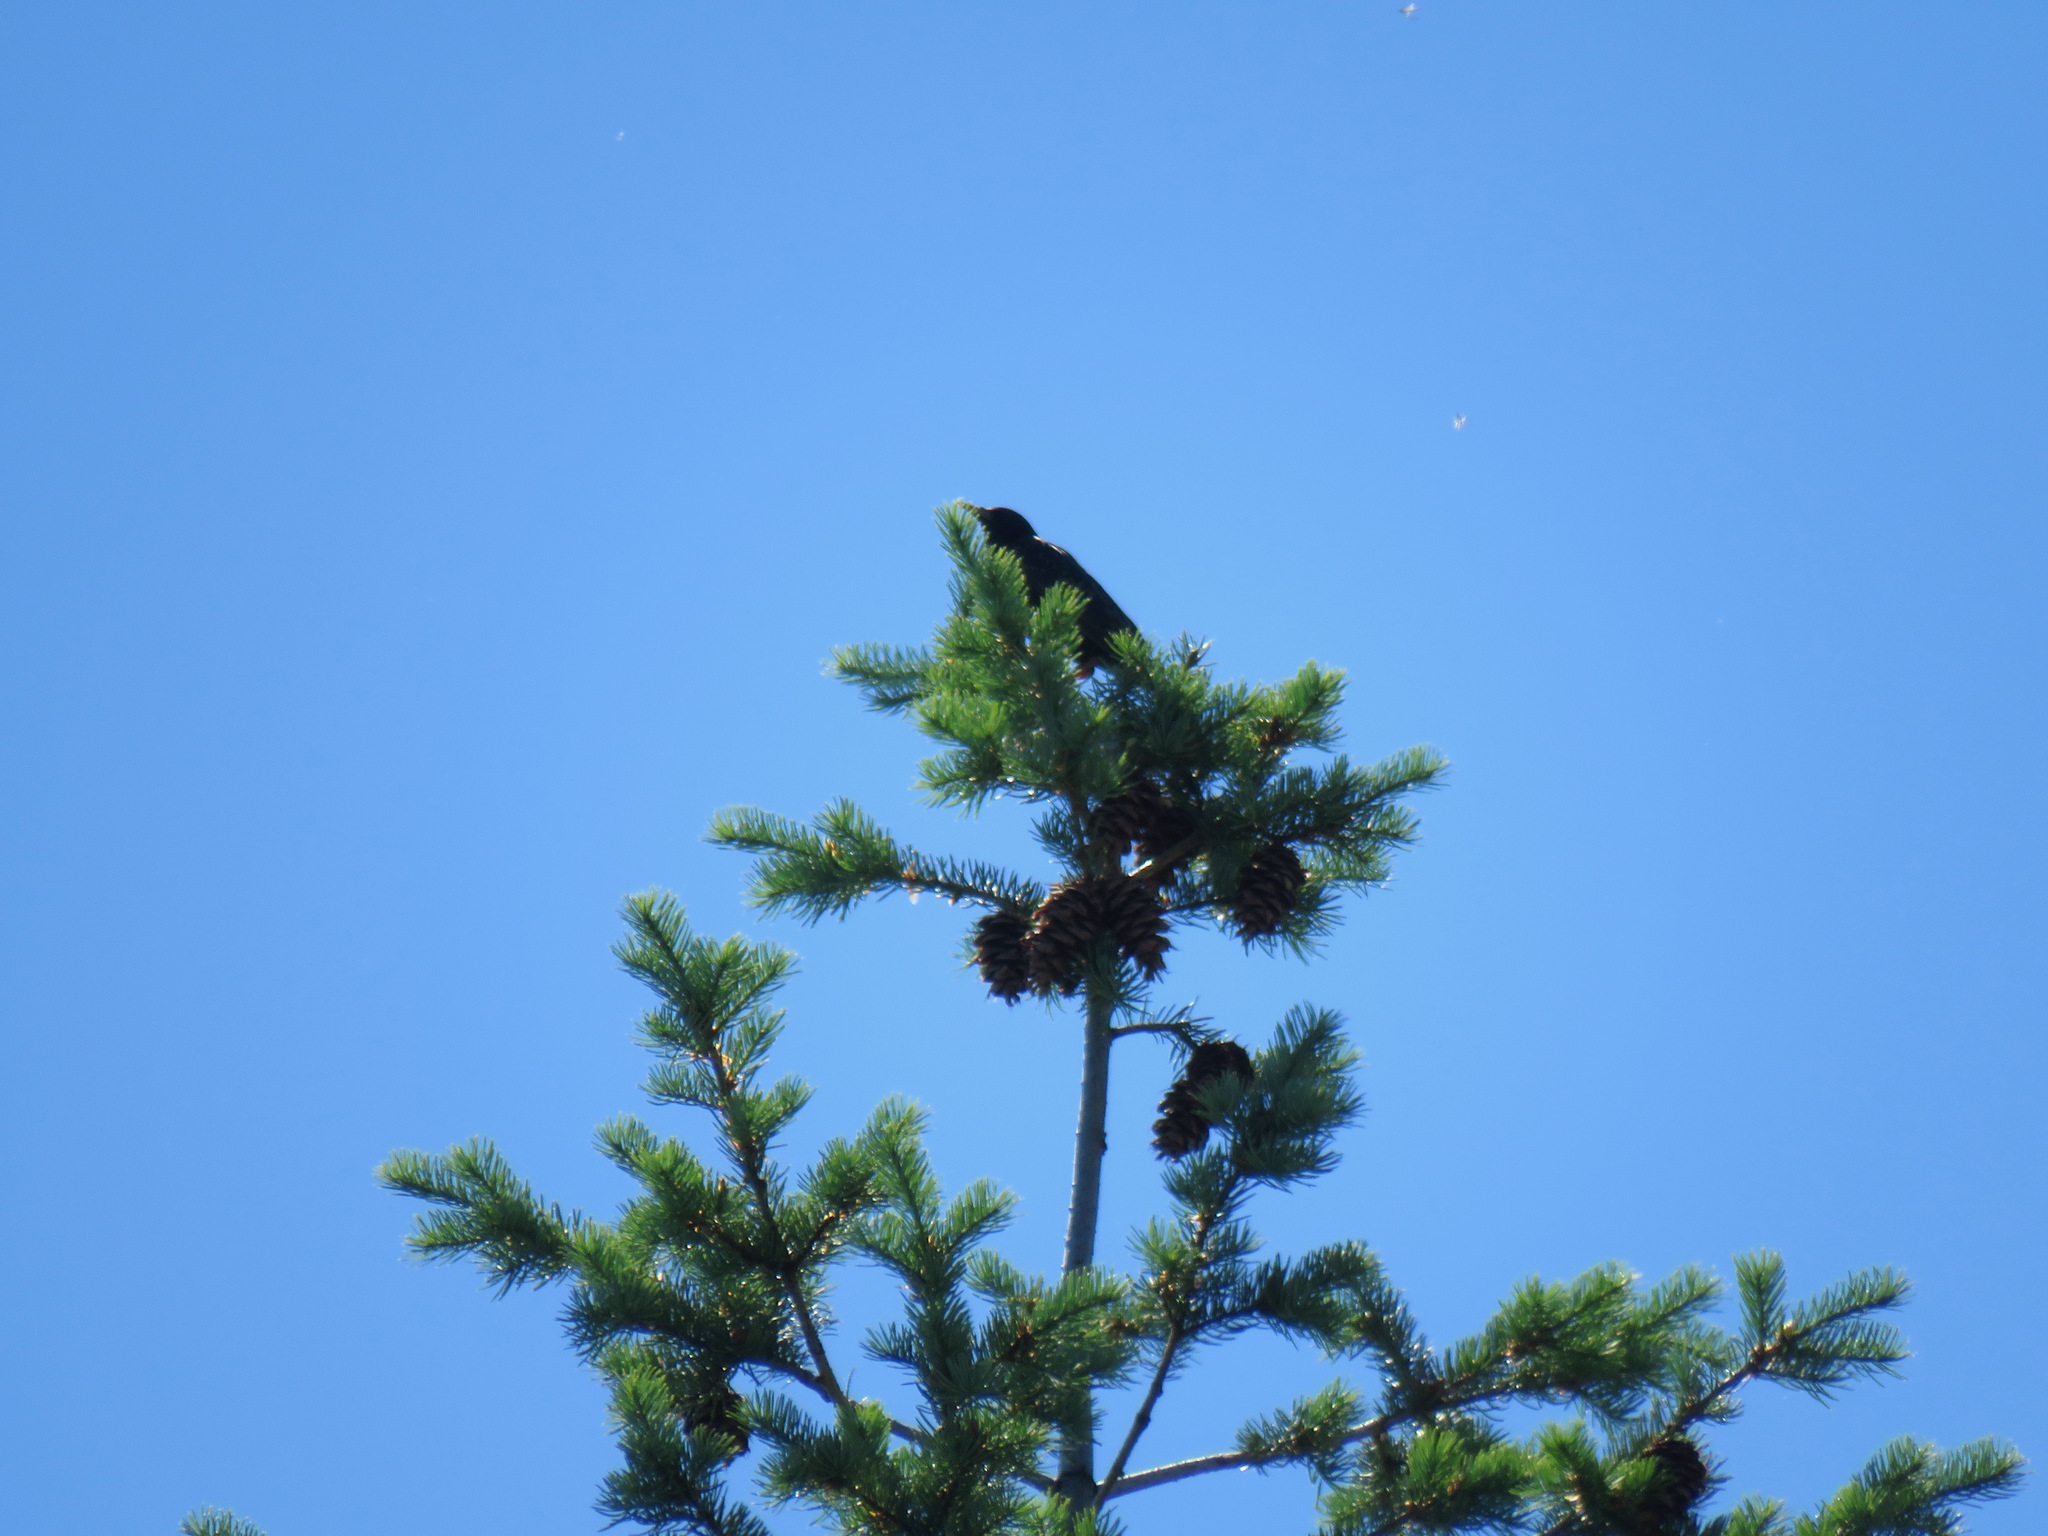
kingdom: Animalia
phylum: Chordata
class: Aves
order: Passeriformes
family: Sturnidae
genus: Sturnus
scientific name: Sturnus vulgaris
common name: Common starling
